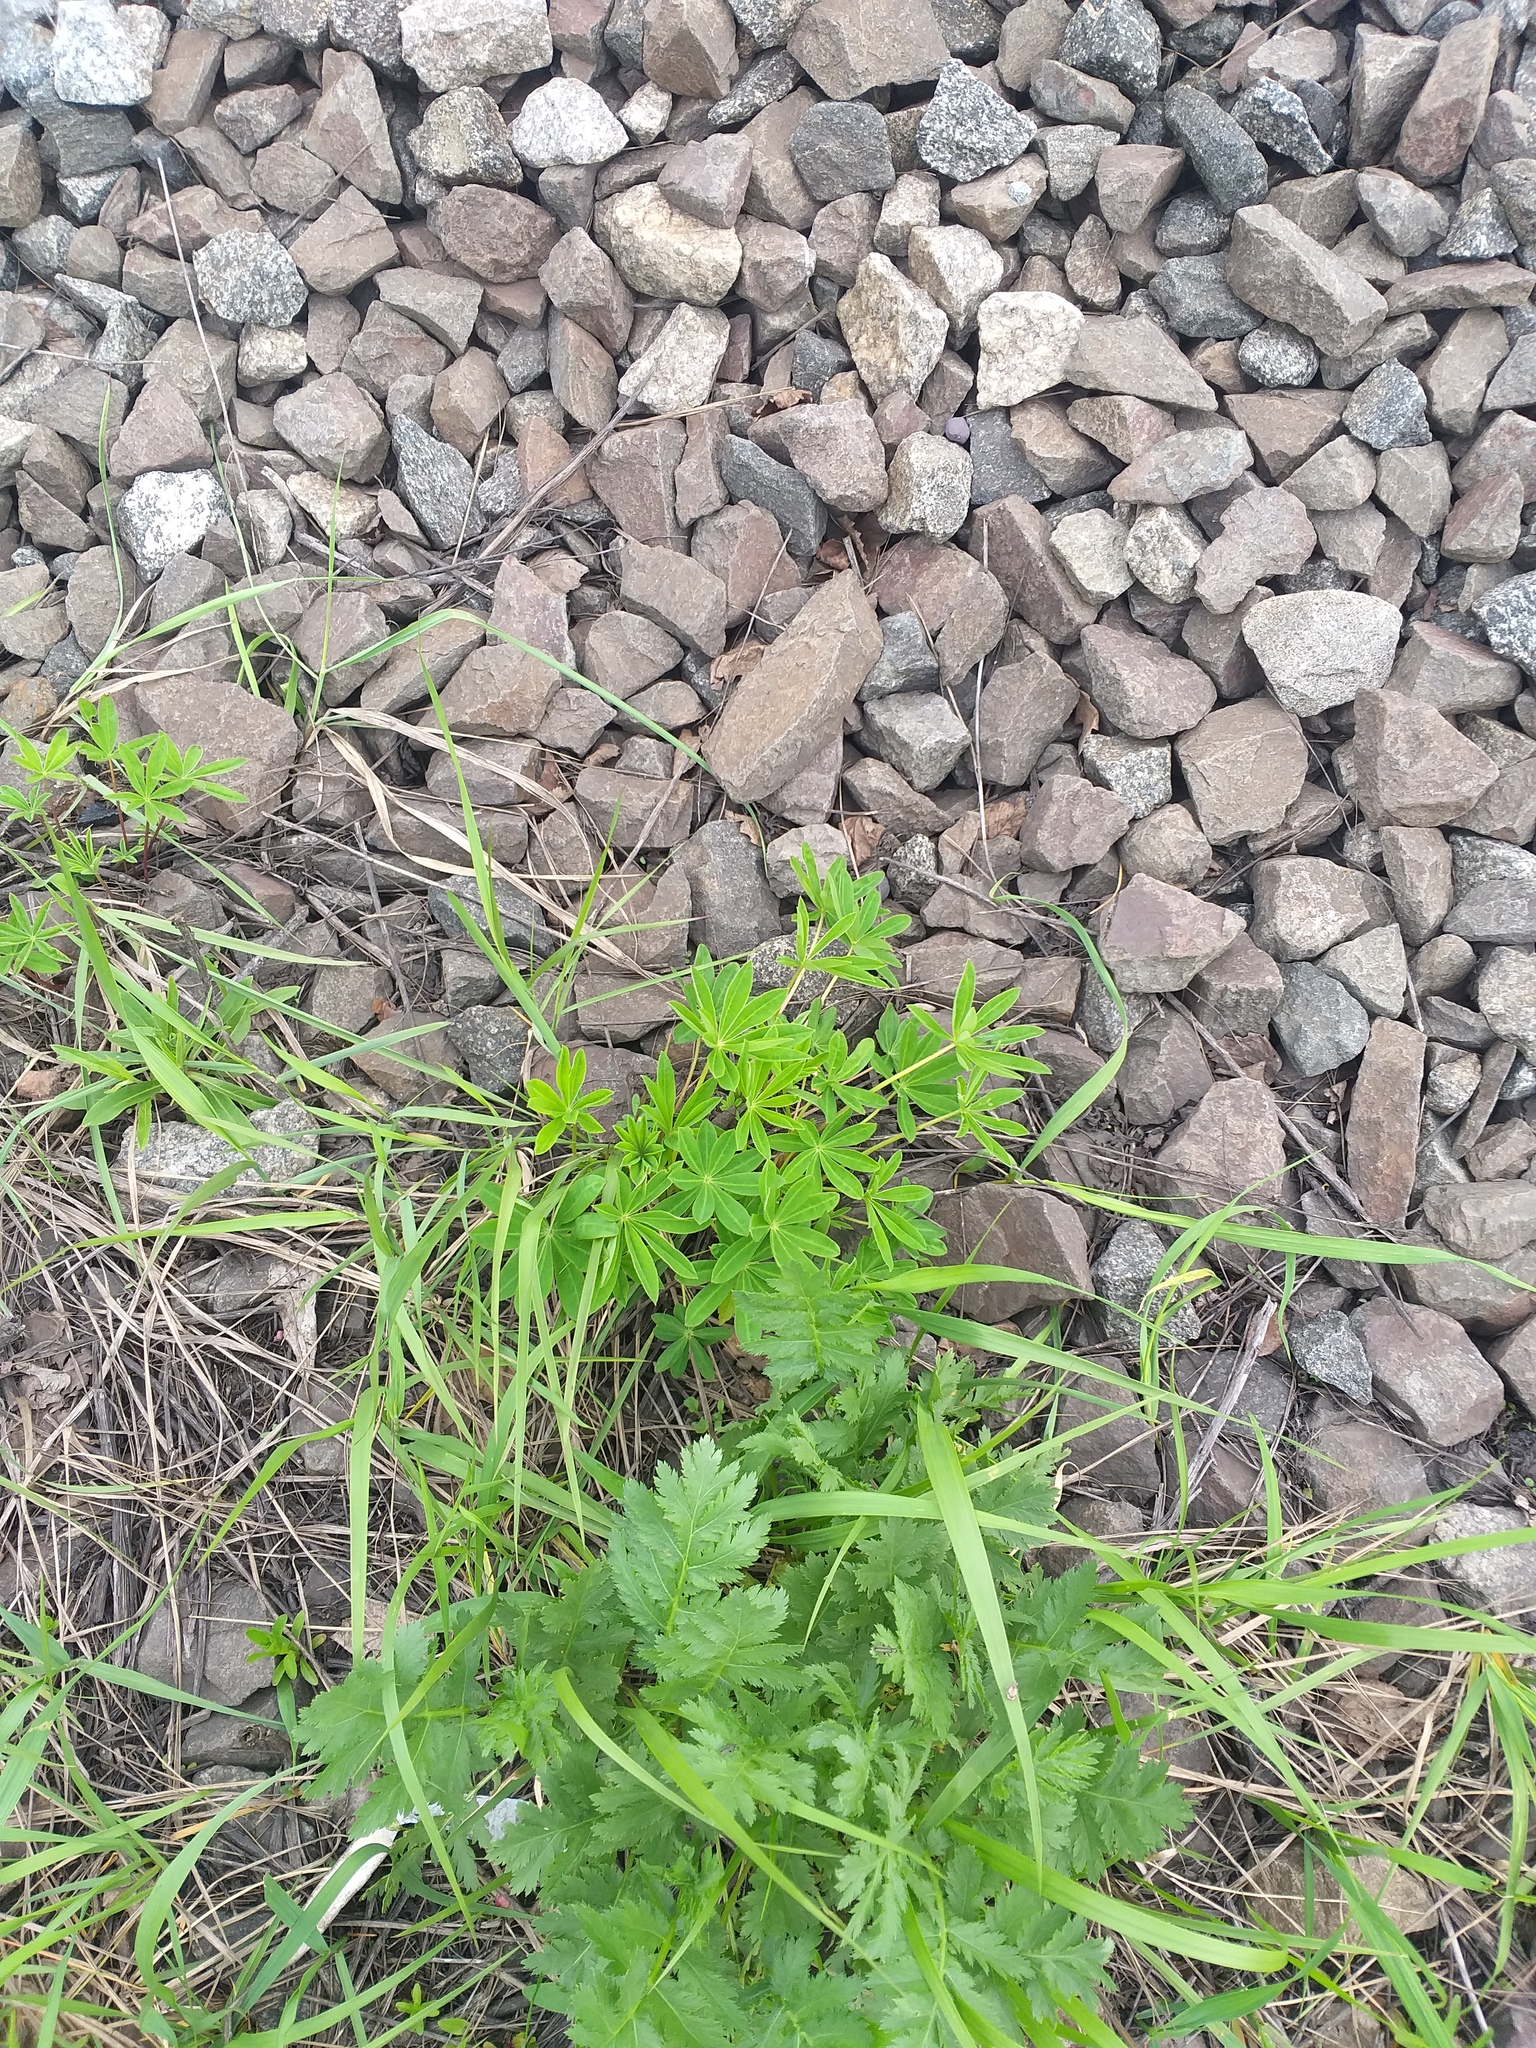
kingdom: Plantae
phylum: Tracheophyta
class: Magnoliopsida
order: Fabales
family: Fabaceae
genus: Lupinus
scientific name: Lupinus polyphyllus
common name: Garden lupin
